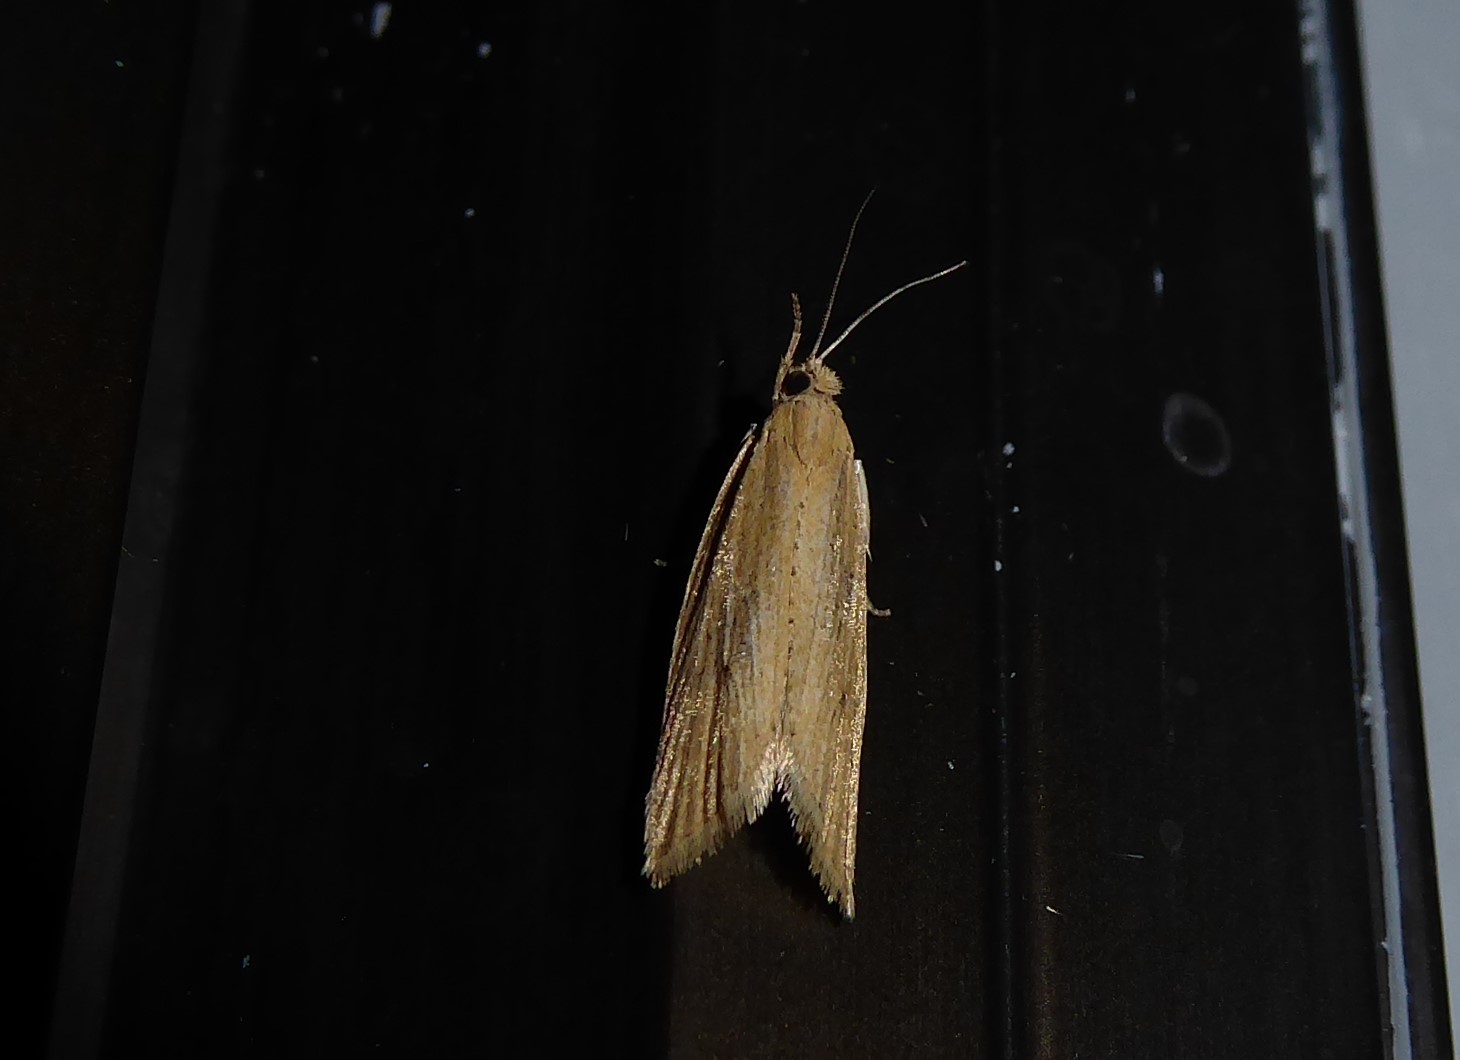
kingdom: Animalia
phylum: Arthropoda
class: Insecta
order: Lepidoptera
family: Tortricidae
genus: Bactra
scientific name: Bactra noteraula
